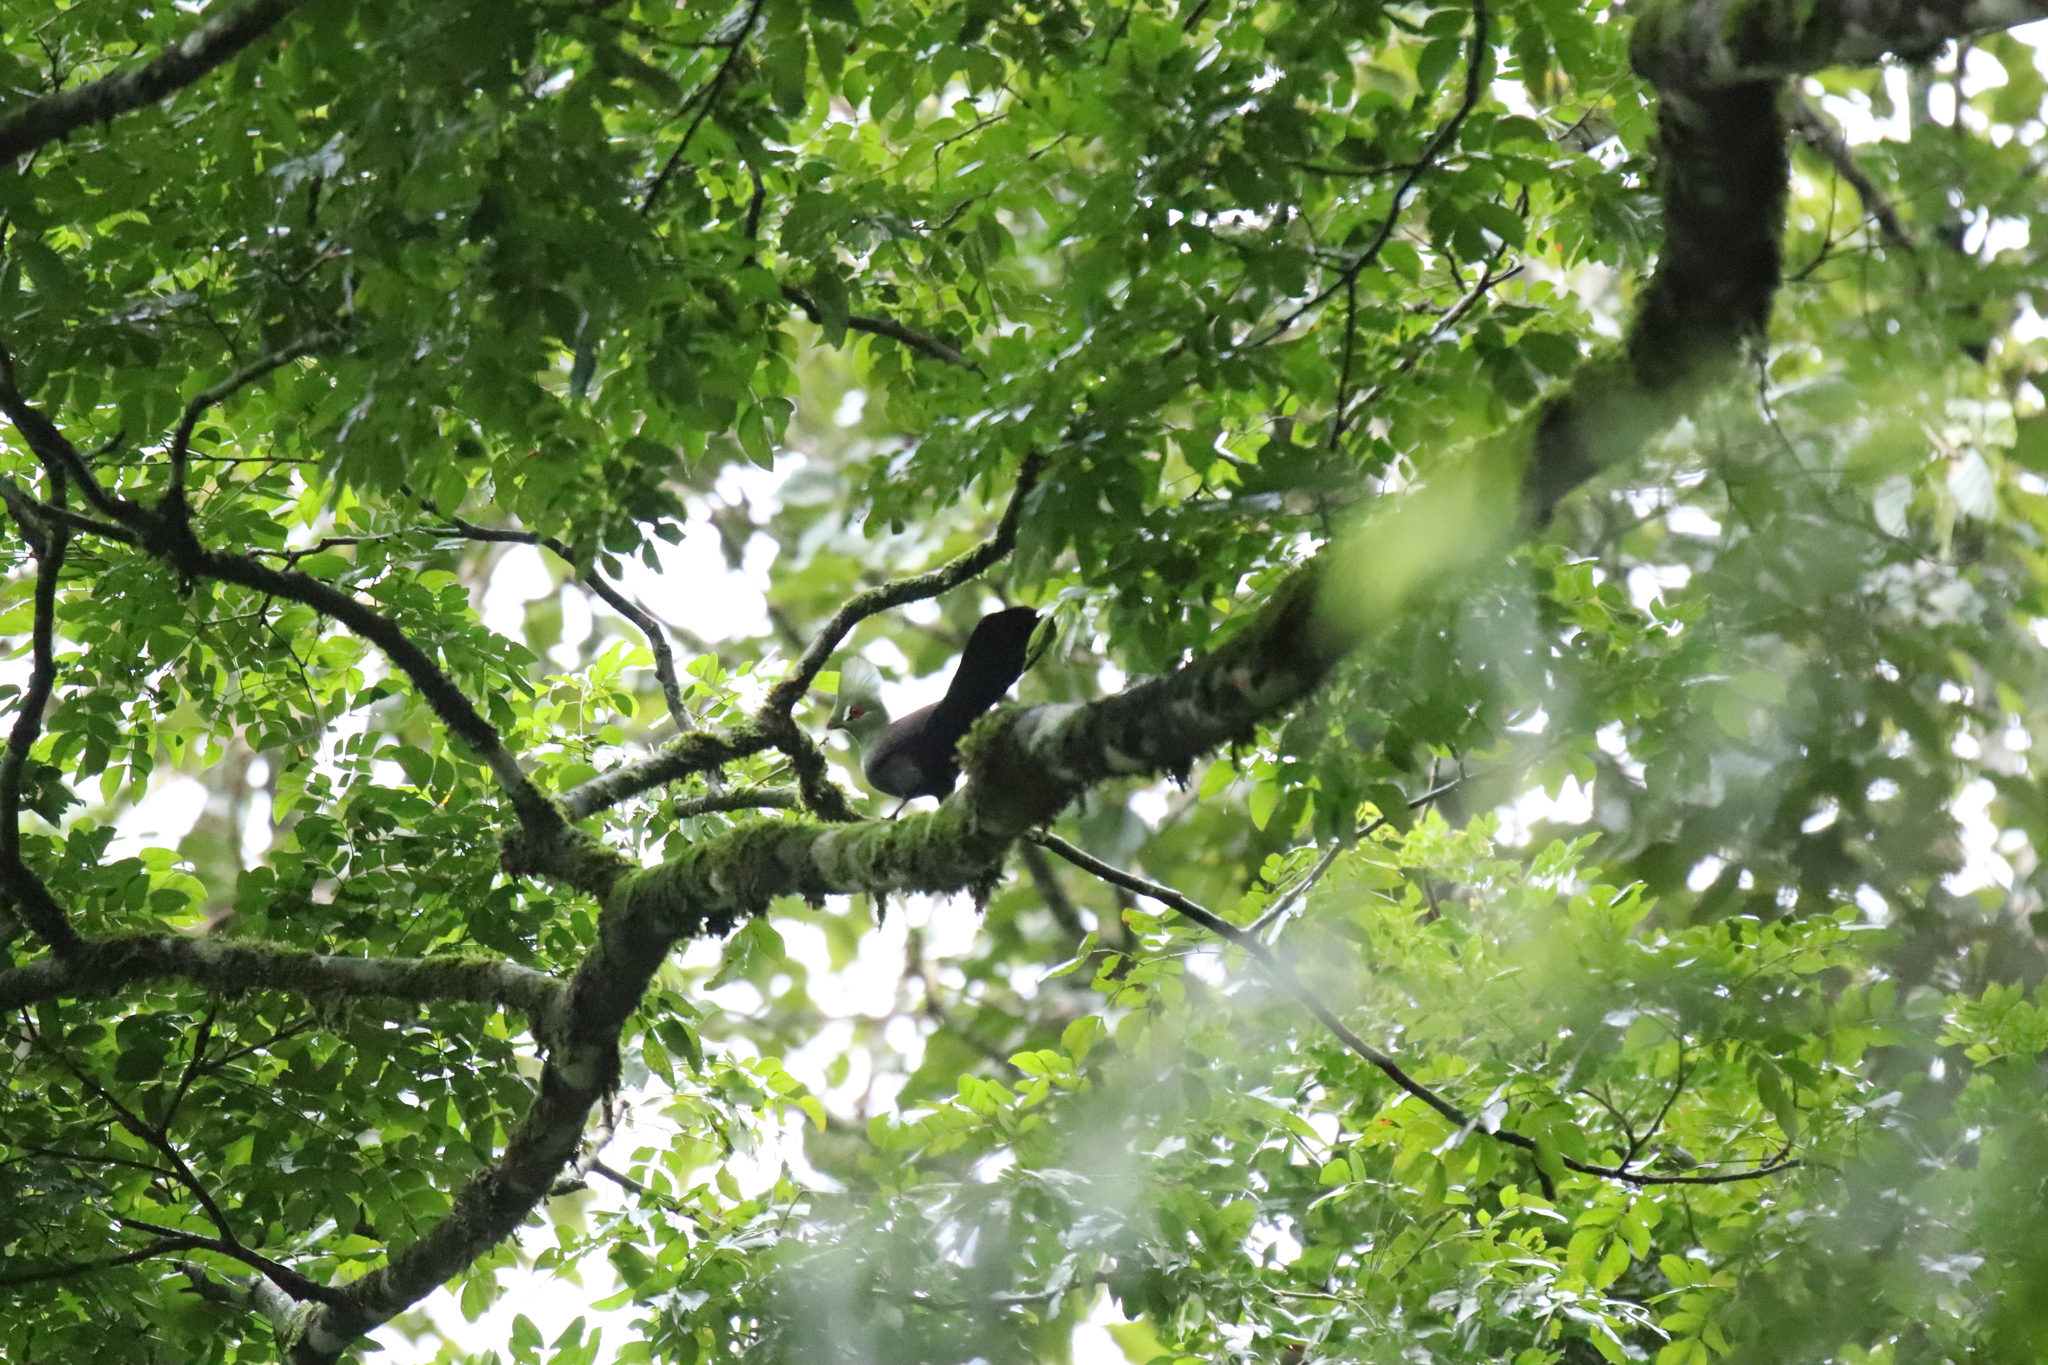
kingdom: Animalia
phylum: Chordata
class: Aves
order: Musophagiformes
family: Musophagidae
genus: Tauraco
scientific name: Tauraco persa
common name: Guinea turaco
